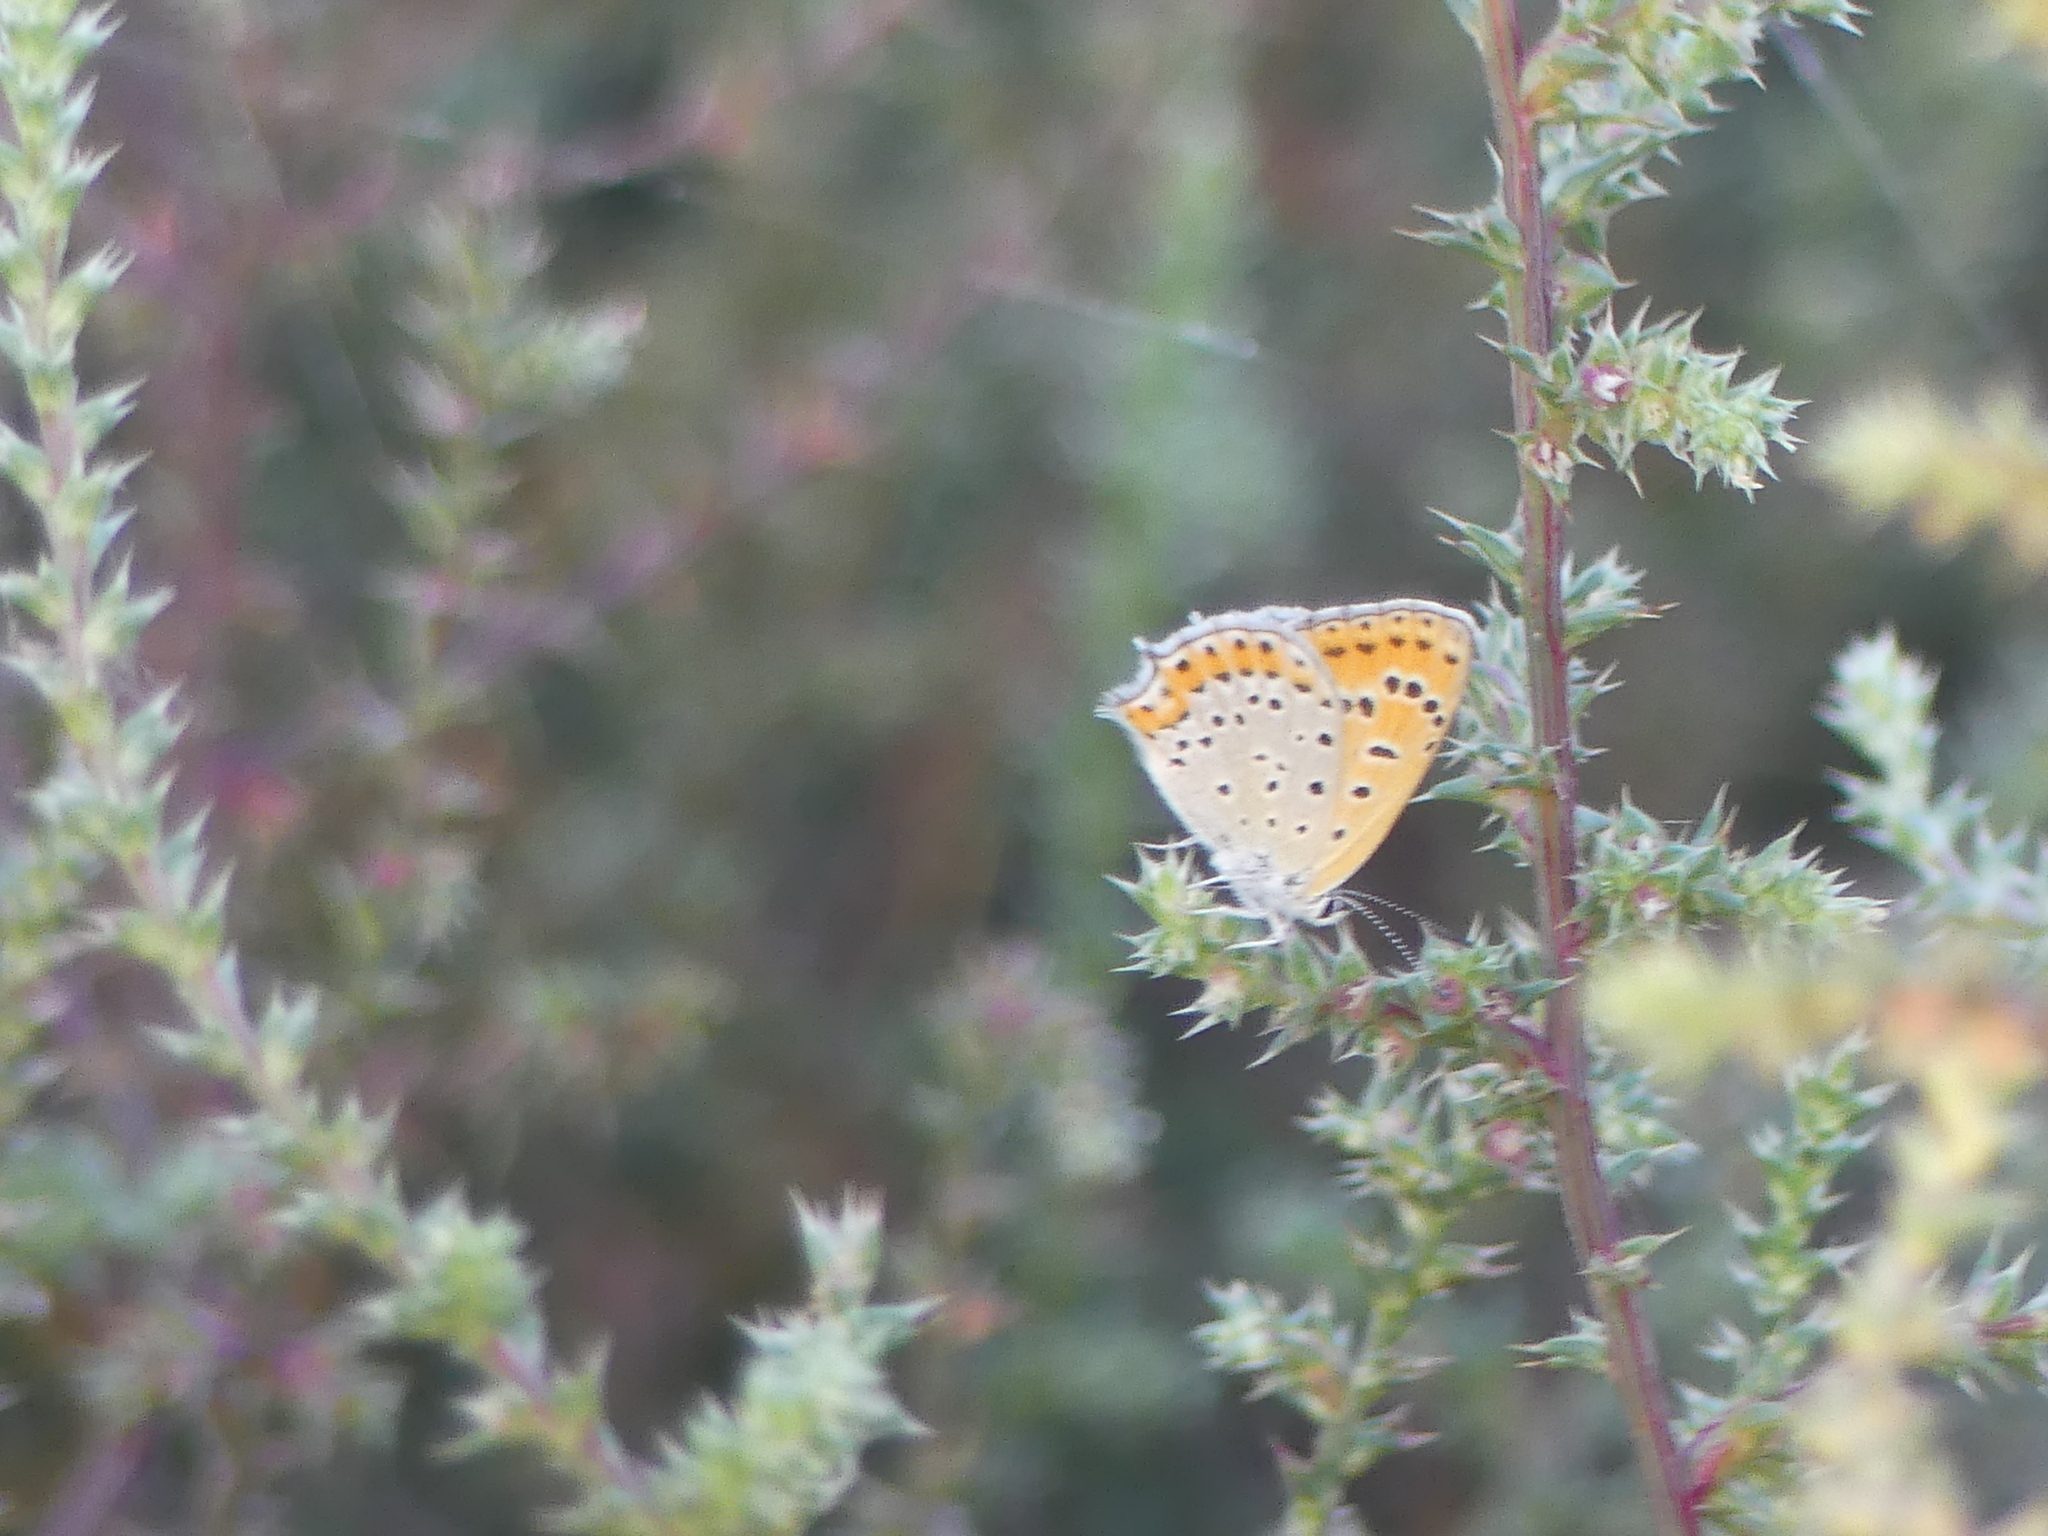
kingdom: Animalia
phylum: Arthropoda
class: Insecta
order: Lepidoptera
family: Lycaenidae
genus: Thersamonia
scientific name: Thersamonia thersamon
